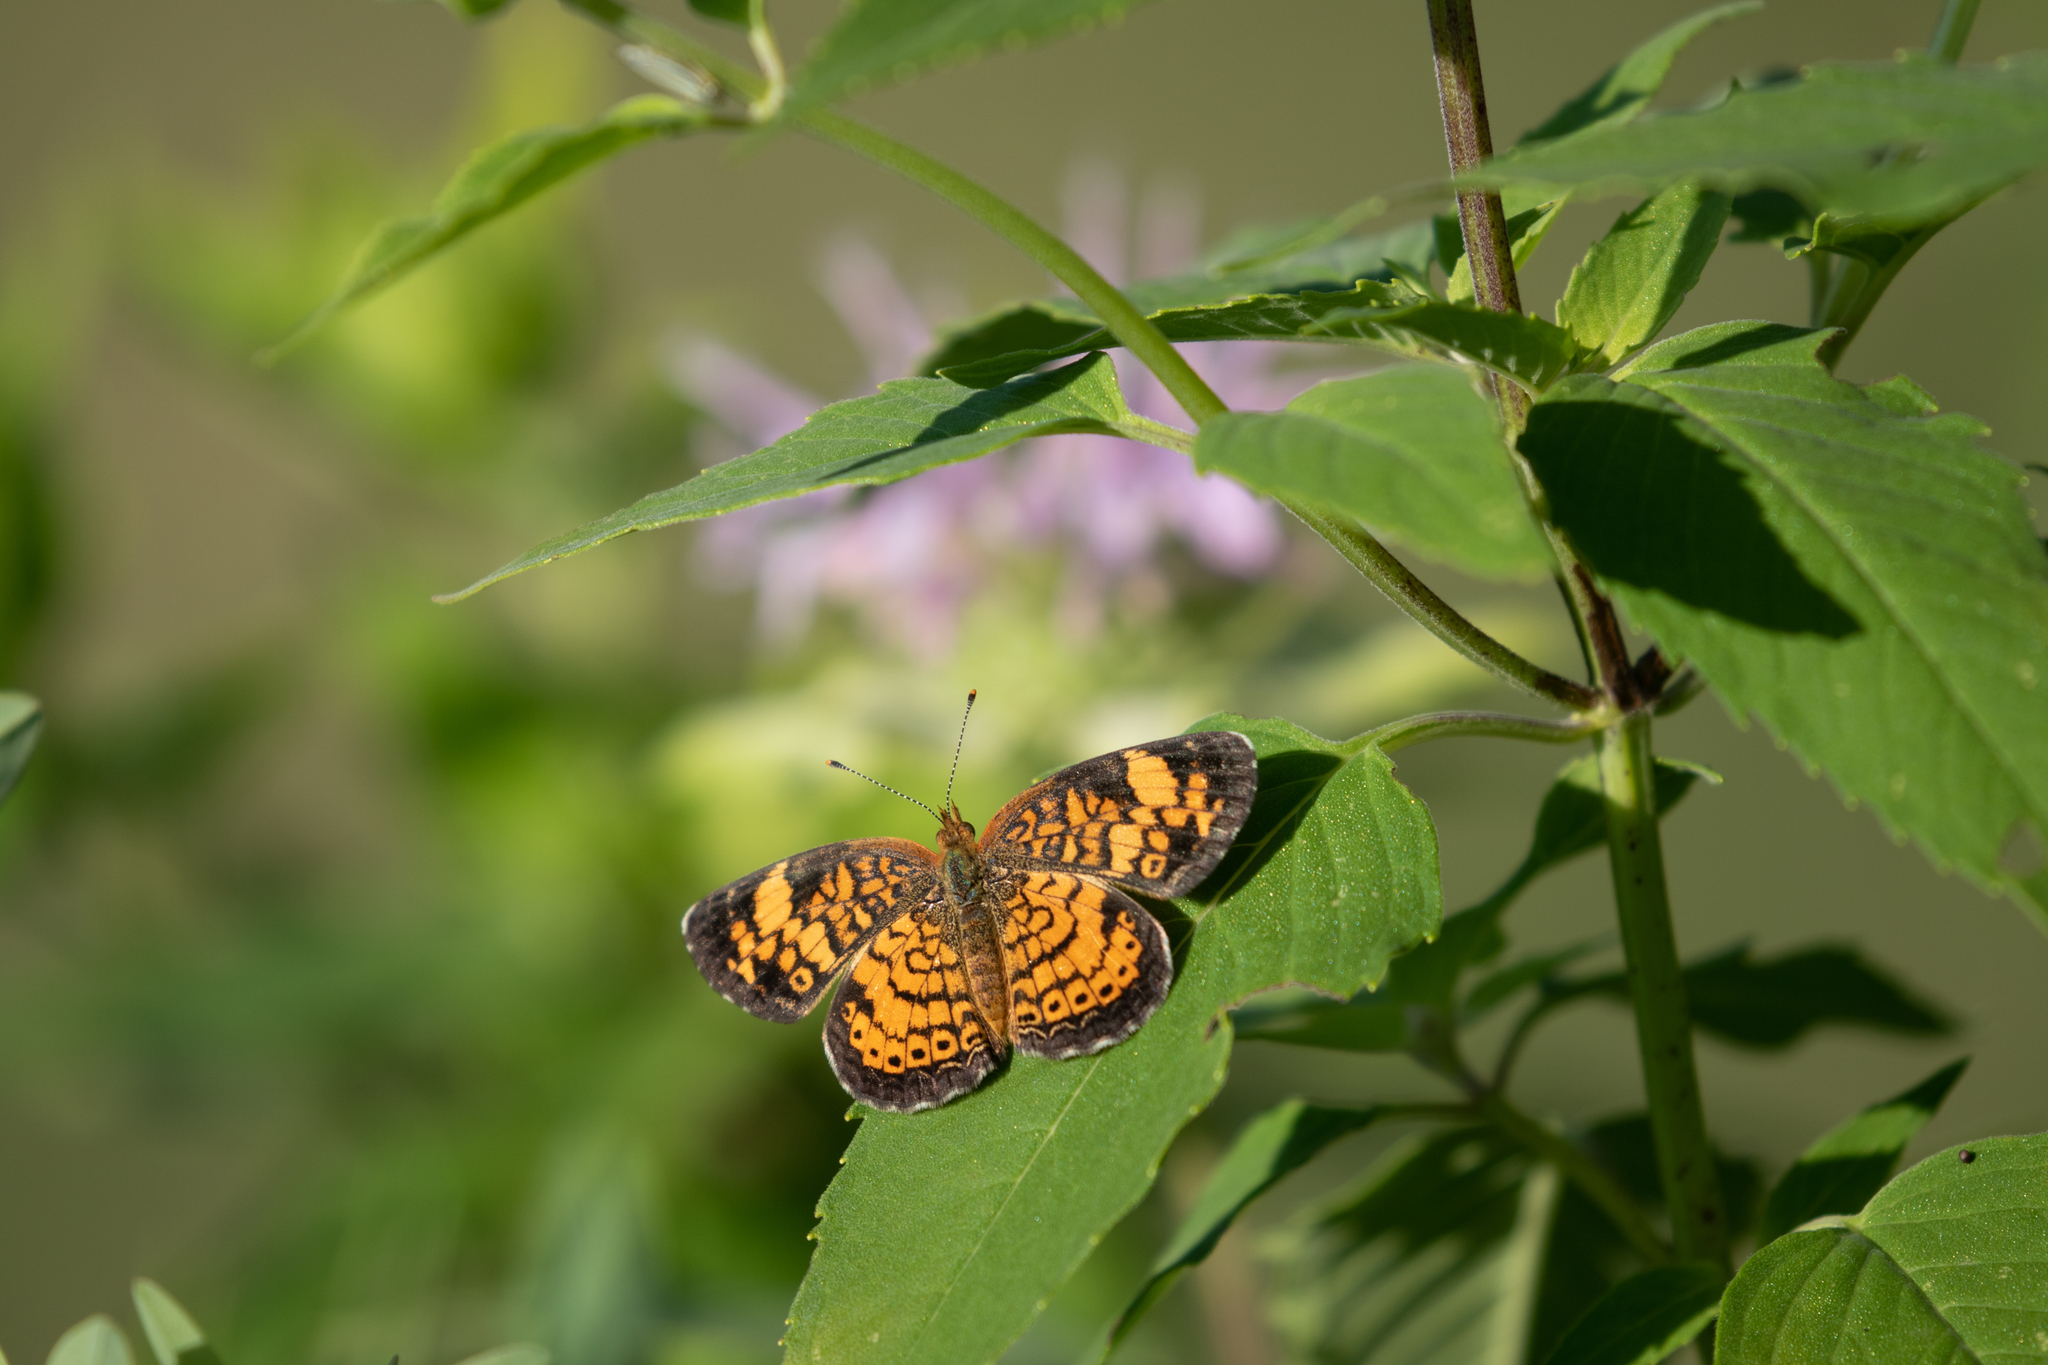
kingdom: Animalia
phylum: Arthropoda
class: Insecta
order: Lepidoptera
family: Nymphalidae
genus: Phyciodes
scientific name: Phyciodes tharos
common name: Pearl crescent
